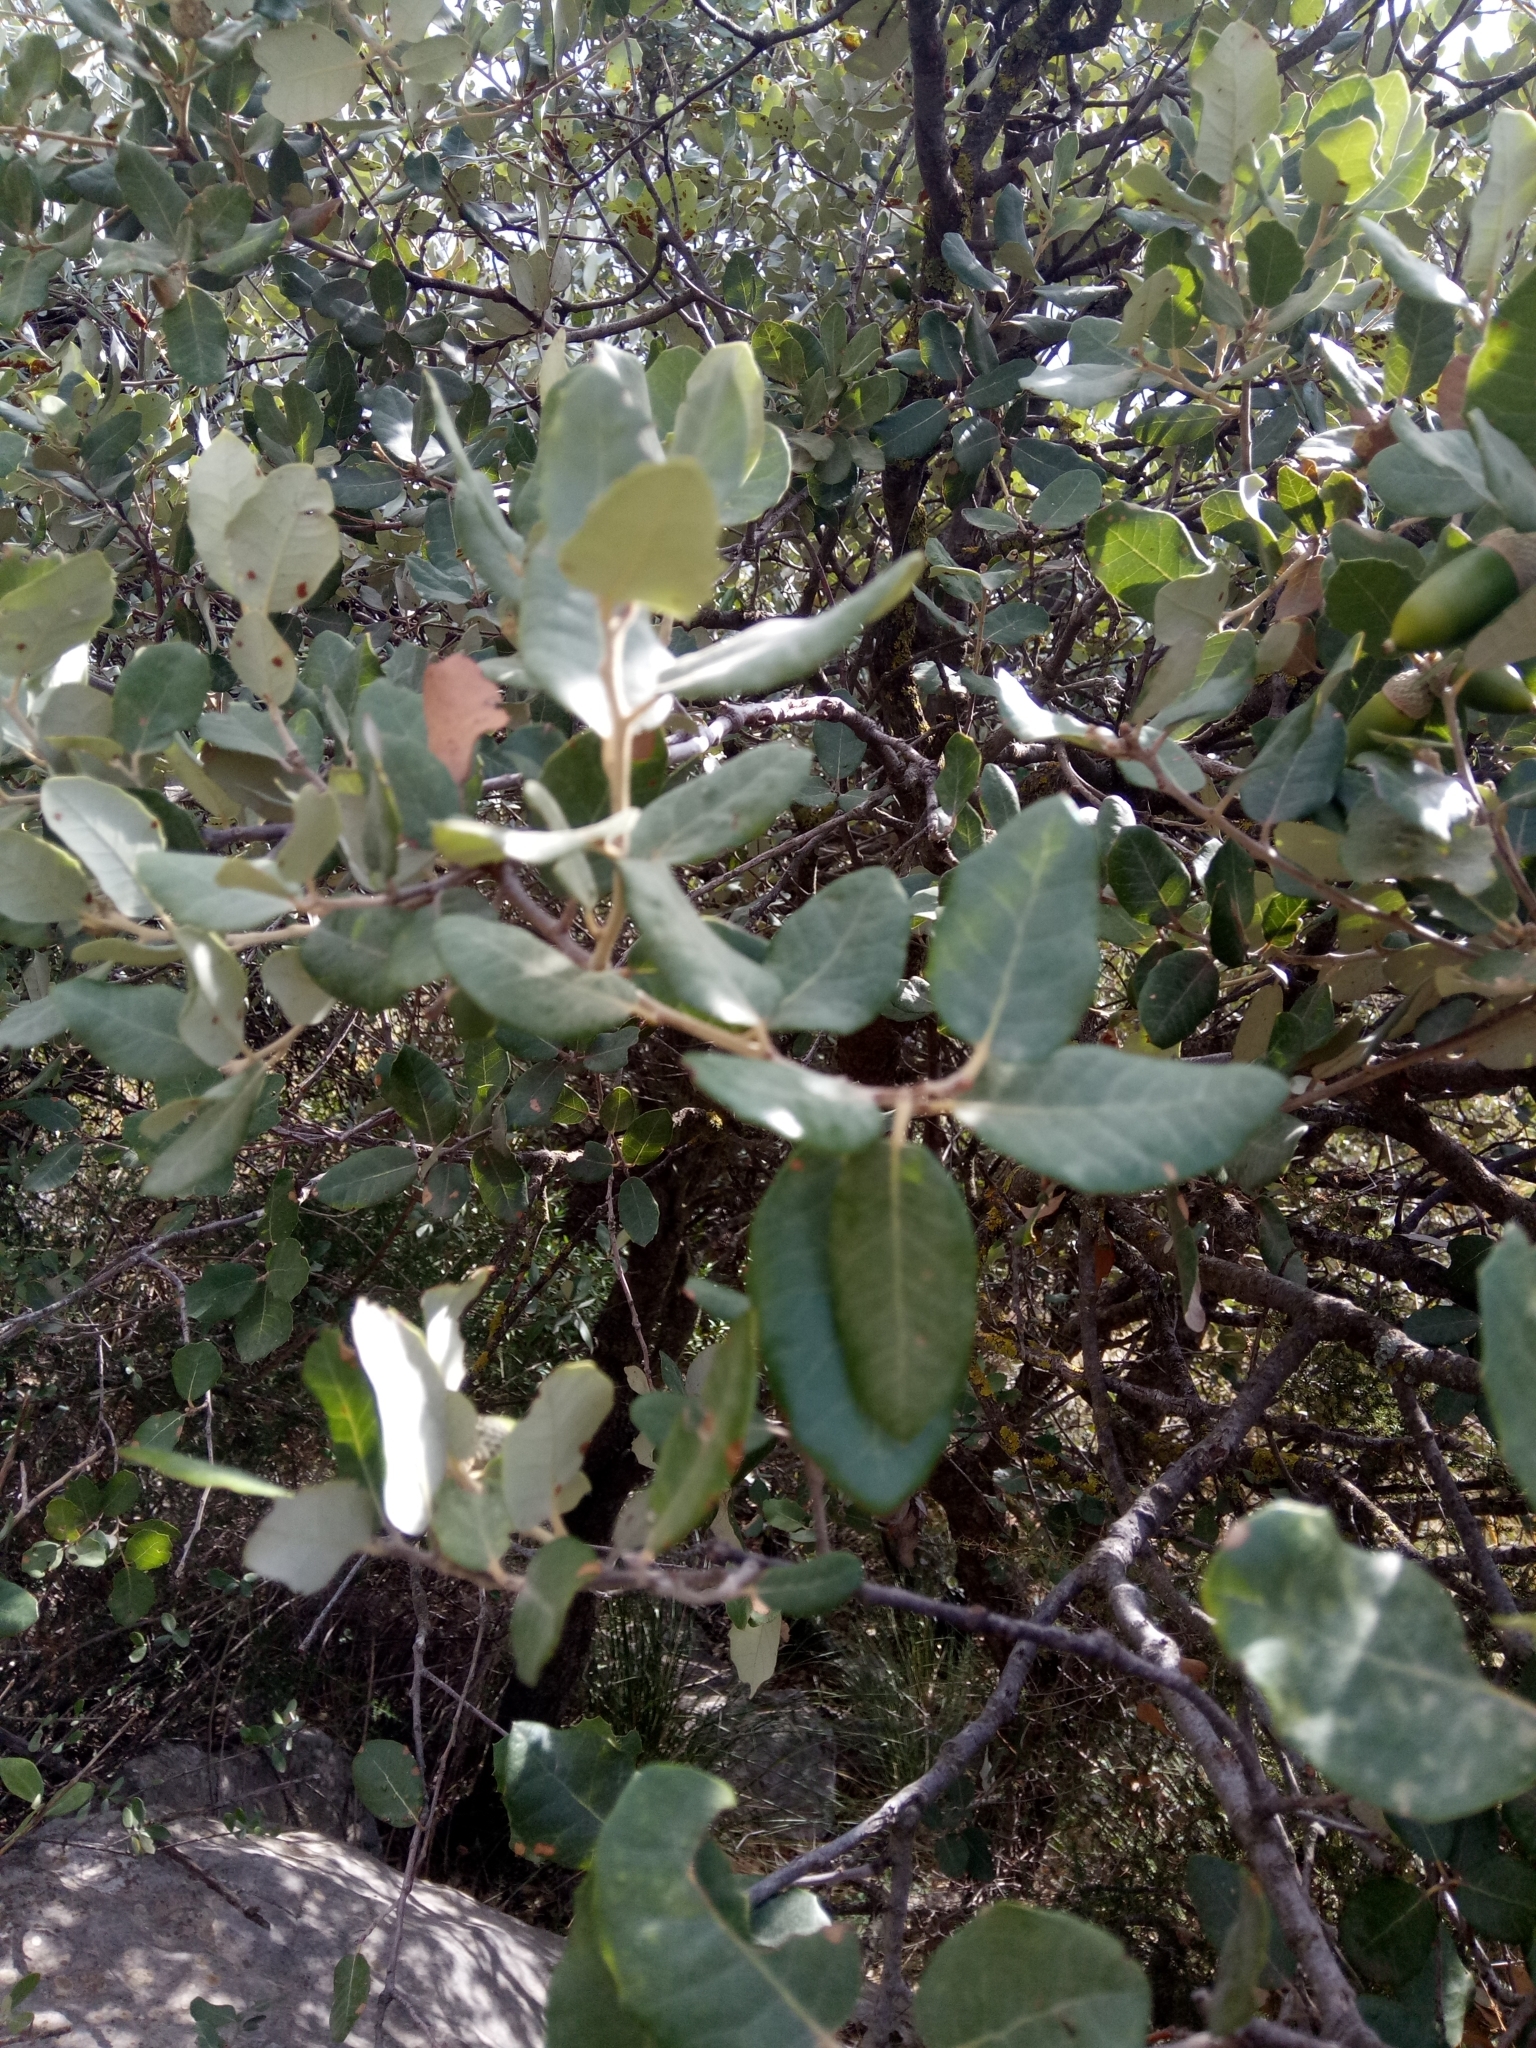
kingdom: Plantae
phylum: Tracheophyta
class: Magnoliopsida
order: Fagales
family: Fagaceae
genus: Quercus
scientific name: Quercus rotundifolia
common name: Holm oak
